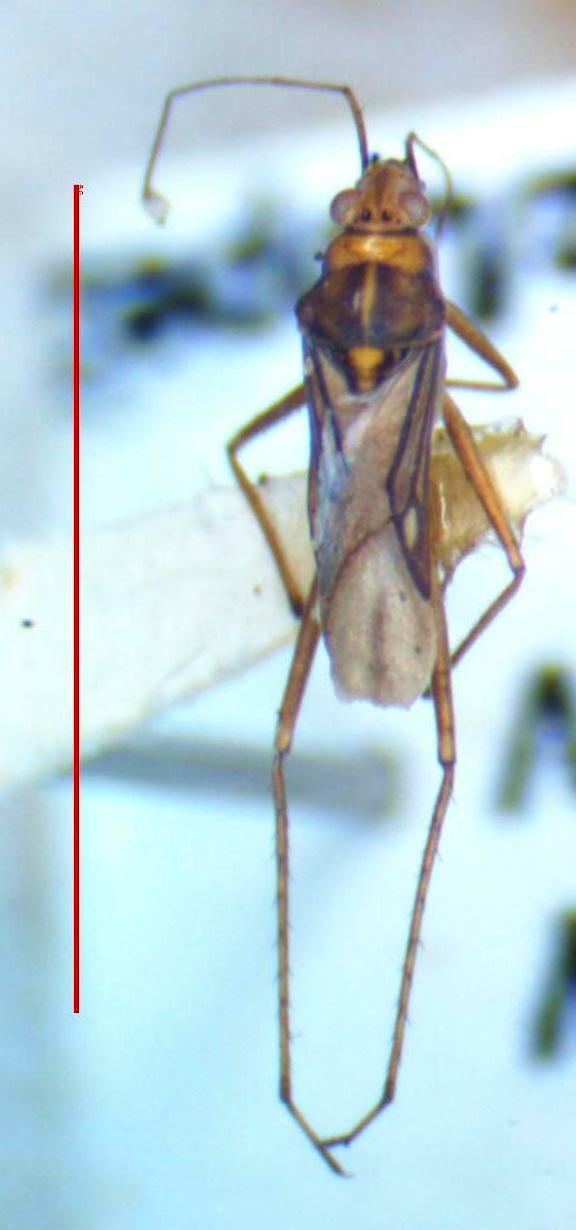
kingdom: Animalia
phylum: Arthropoda
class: Insecta
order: Hemiptera
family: Mesoveliidae
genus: Mesovelia
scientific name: Mesovelia mulsanti
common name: Water treaders
